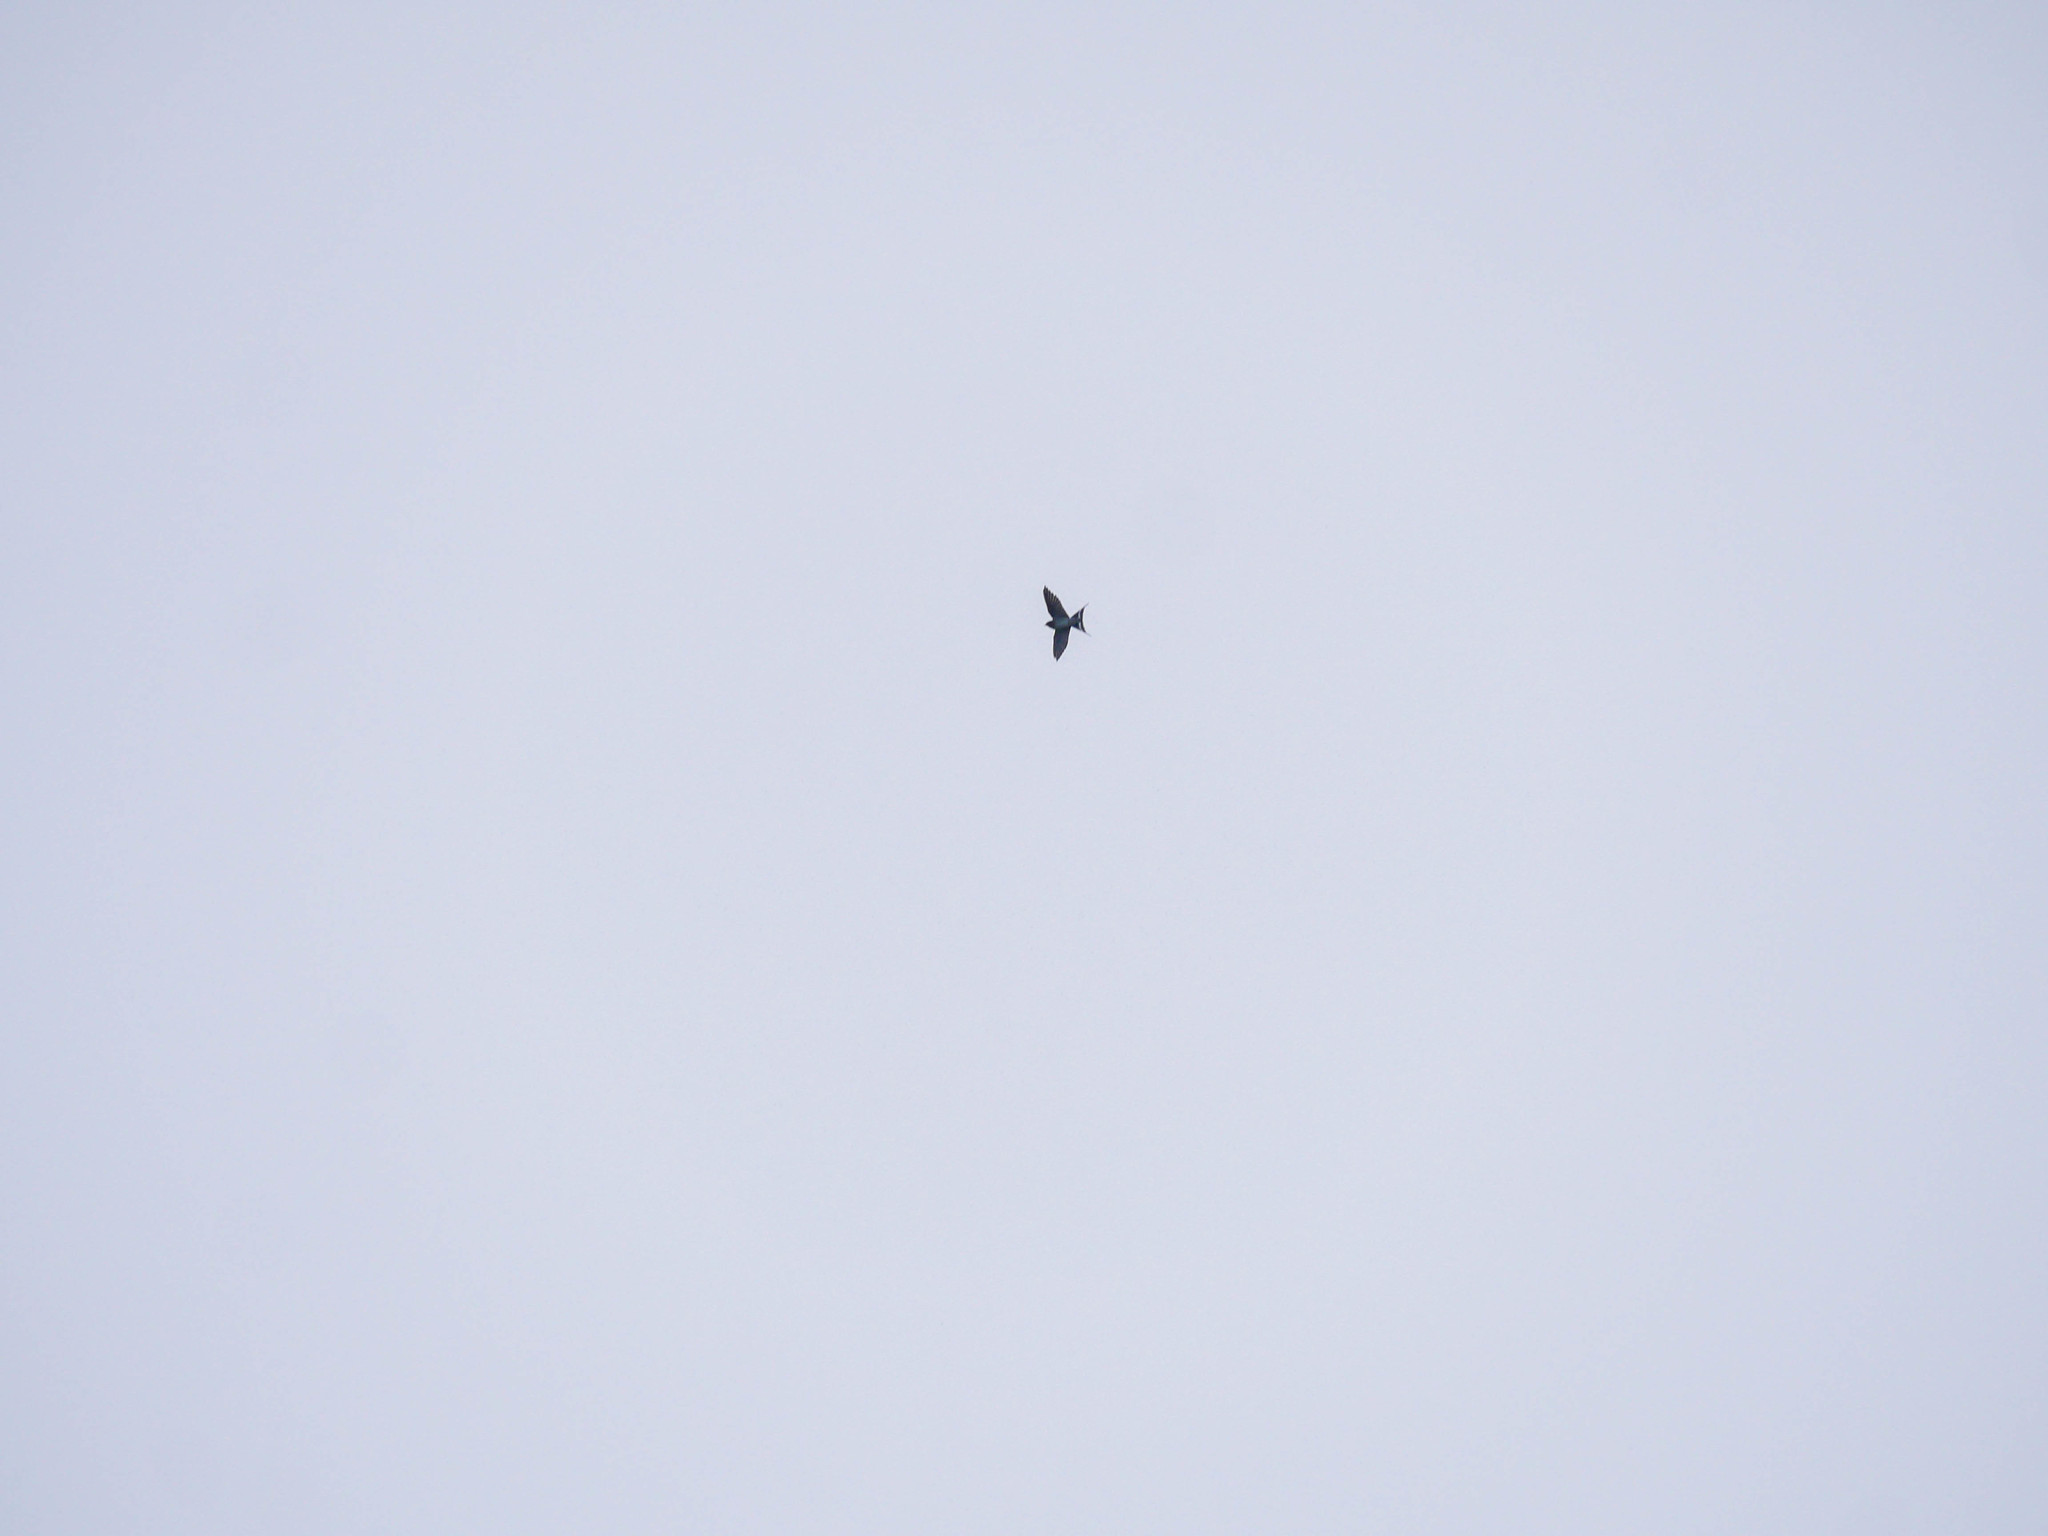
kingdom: Animalia
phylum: Chordata
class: Aves
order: Passeriformes
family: Hirundinidae
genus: Hirundo
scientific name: Hirundo neoxena
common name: Welcome swallow
